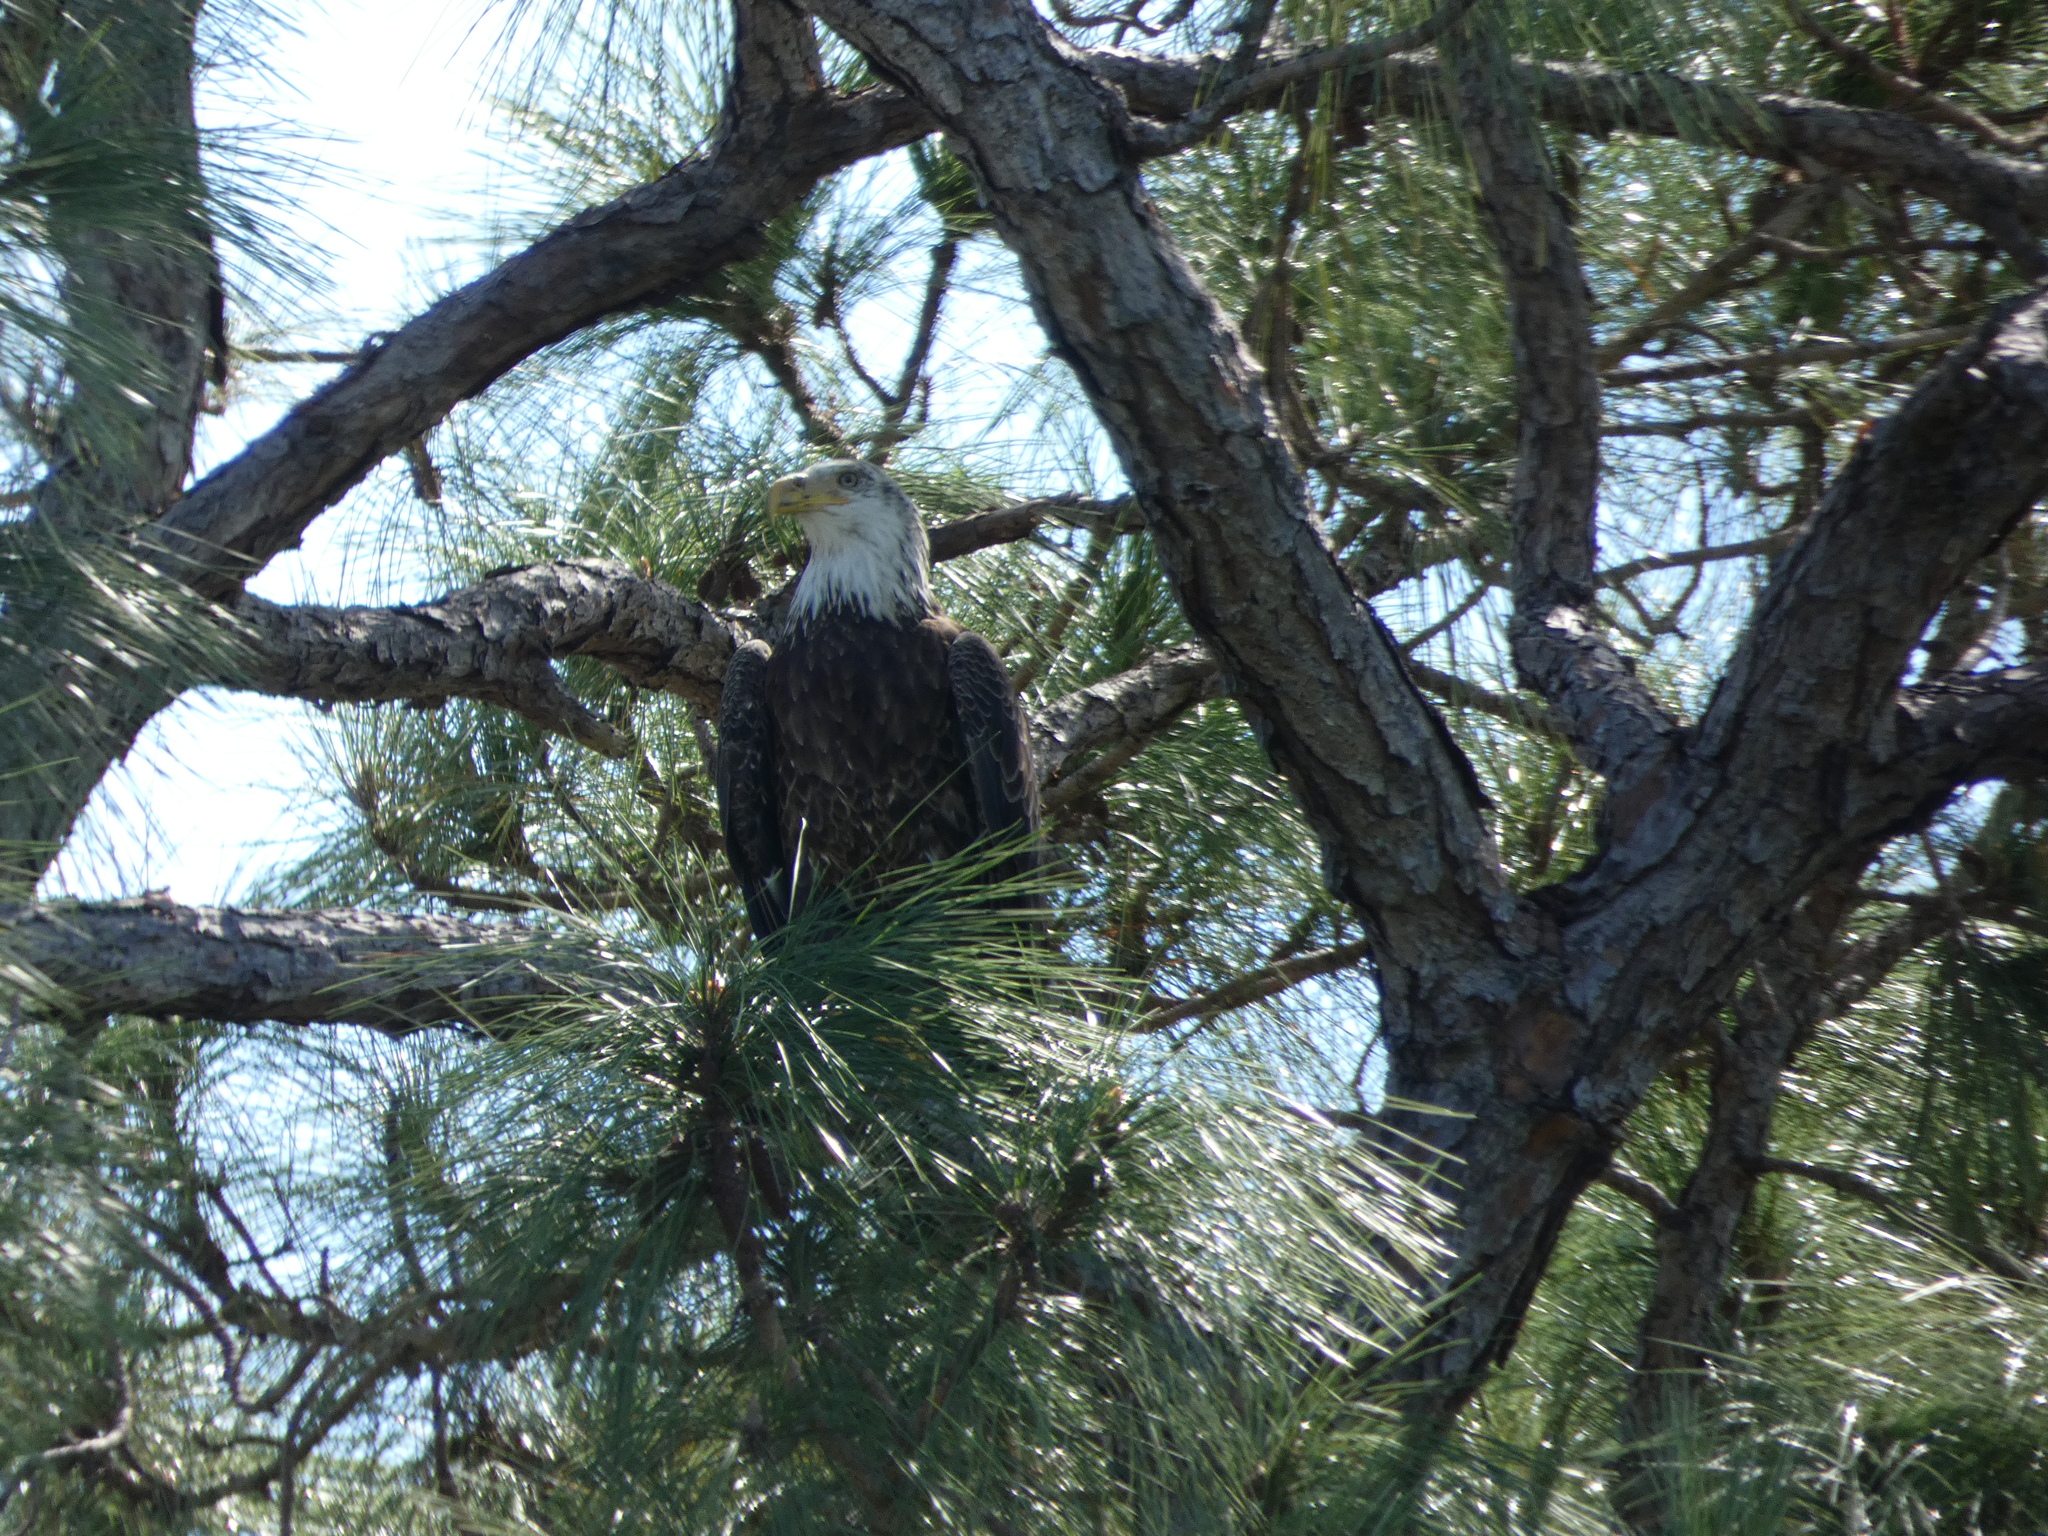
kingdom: Animalia
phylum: Chordata
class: Aves
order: Accipitriformes
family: Accipitridae
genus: Haliaeetus
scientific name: Haliaeetus leucocephalus
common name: Bald eagle
